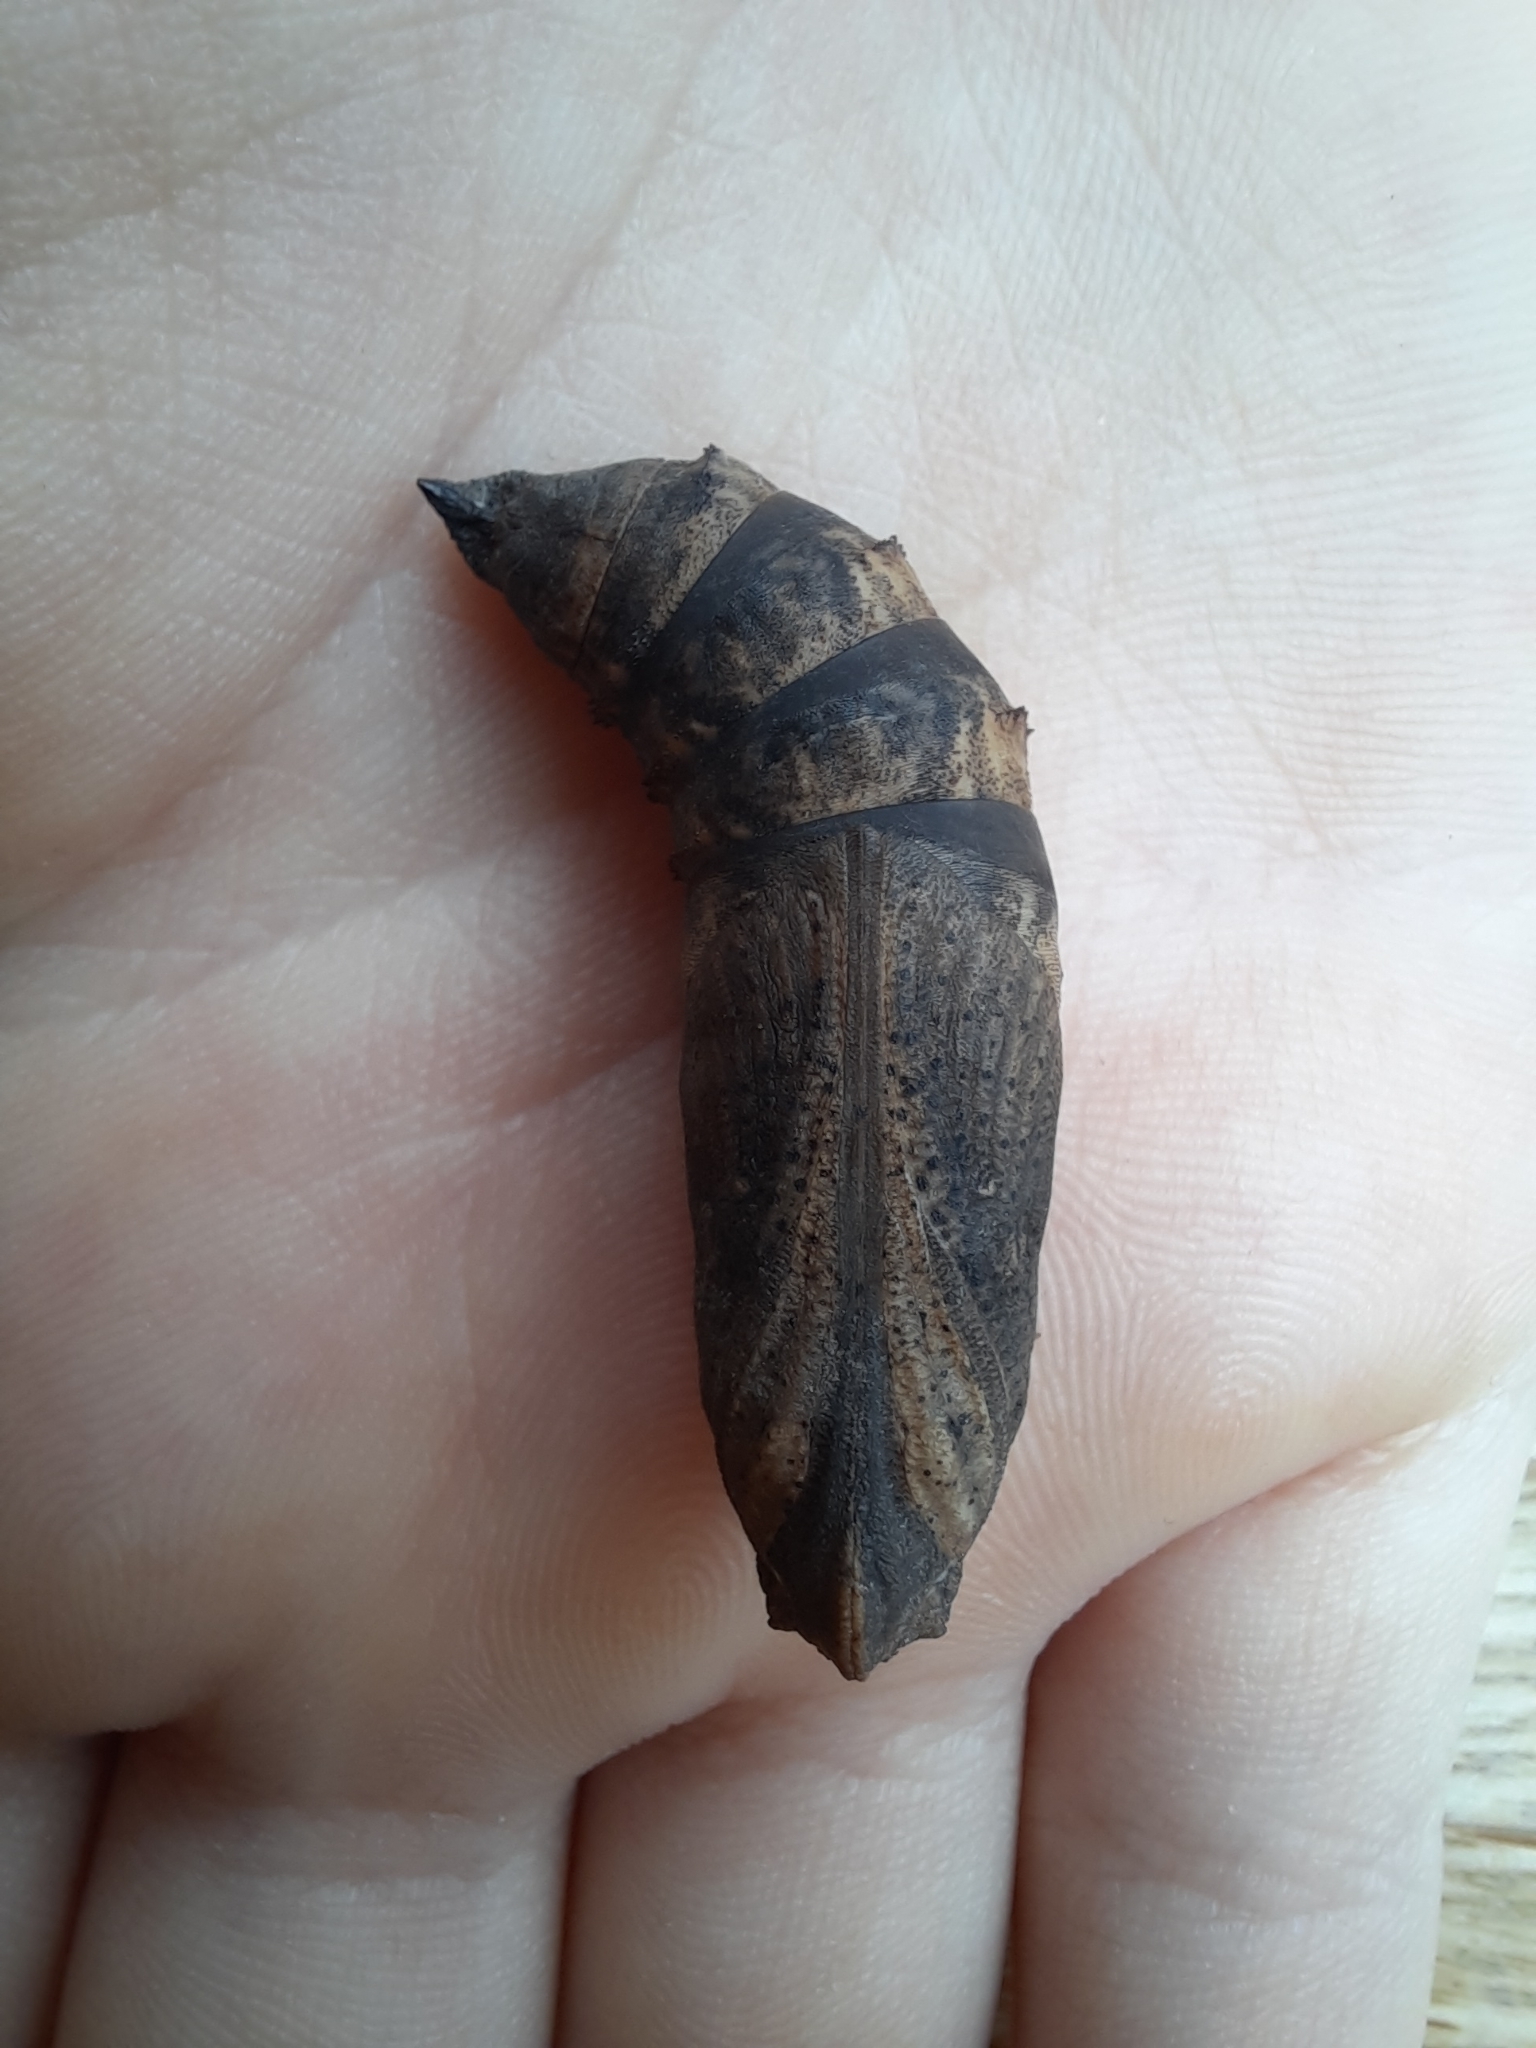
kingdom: Animalia
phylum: Arthropoda
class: Insecta
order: Lepidoptera
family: Sphingidae
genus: Deilephila
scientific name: Deilephila elpenor
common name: Elephant hawk-moth
